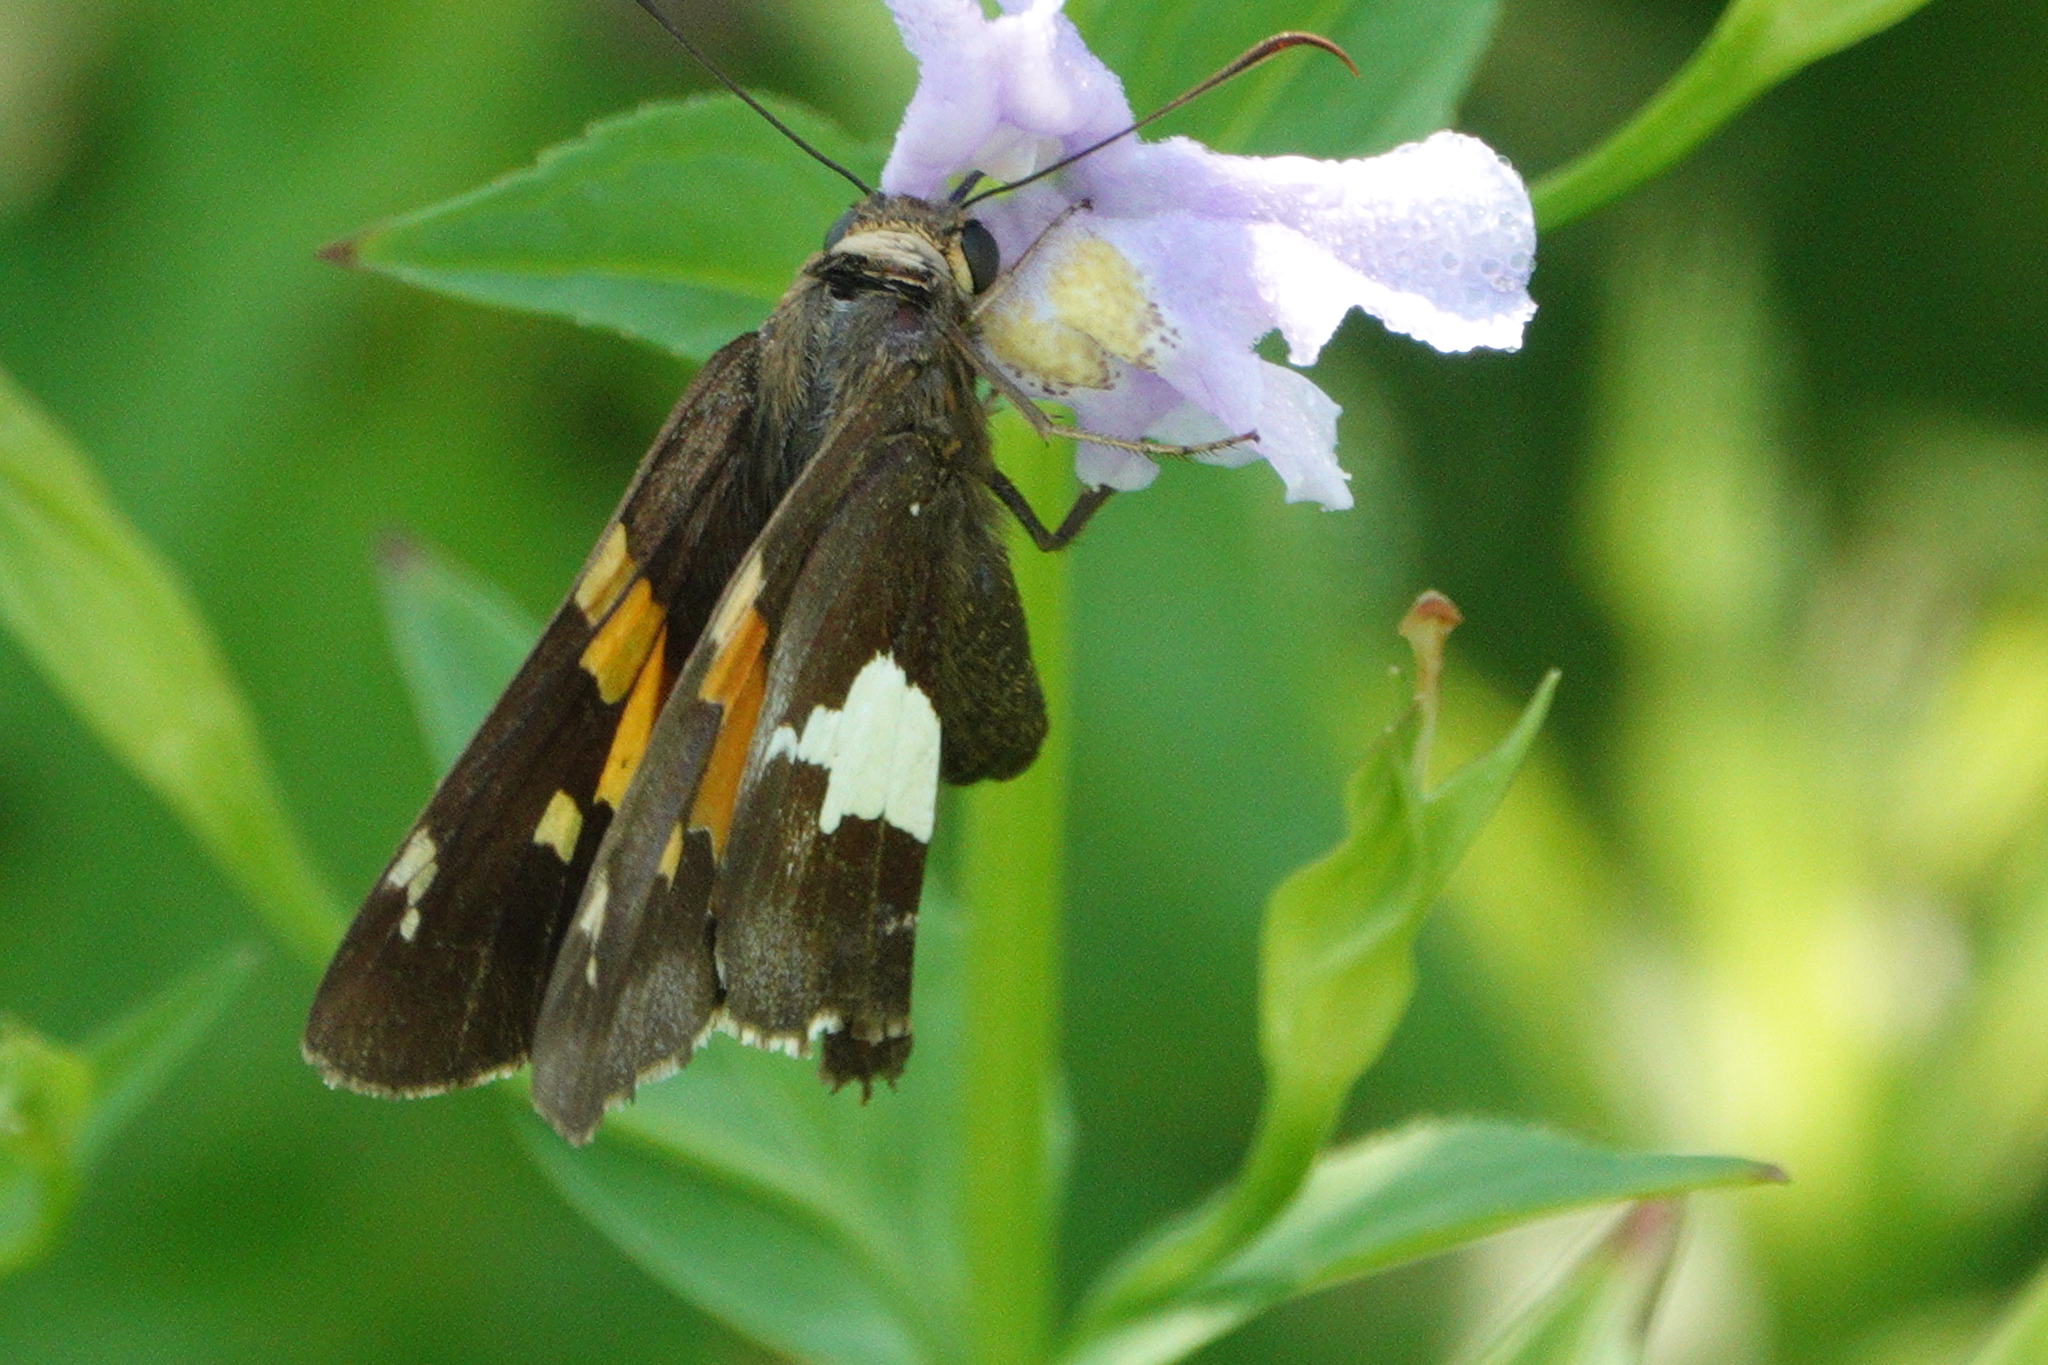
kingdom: Animalia
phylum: Arthropoda
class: Insecta
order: Lepidoptera
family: Hesperiidae
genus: Epargyreus
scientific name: Epargyreus clarus
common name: Silver-spotted skipper
